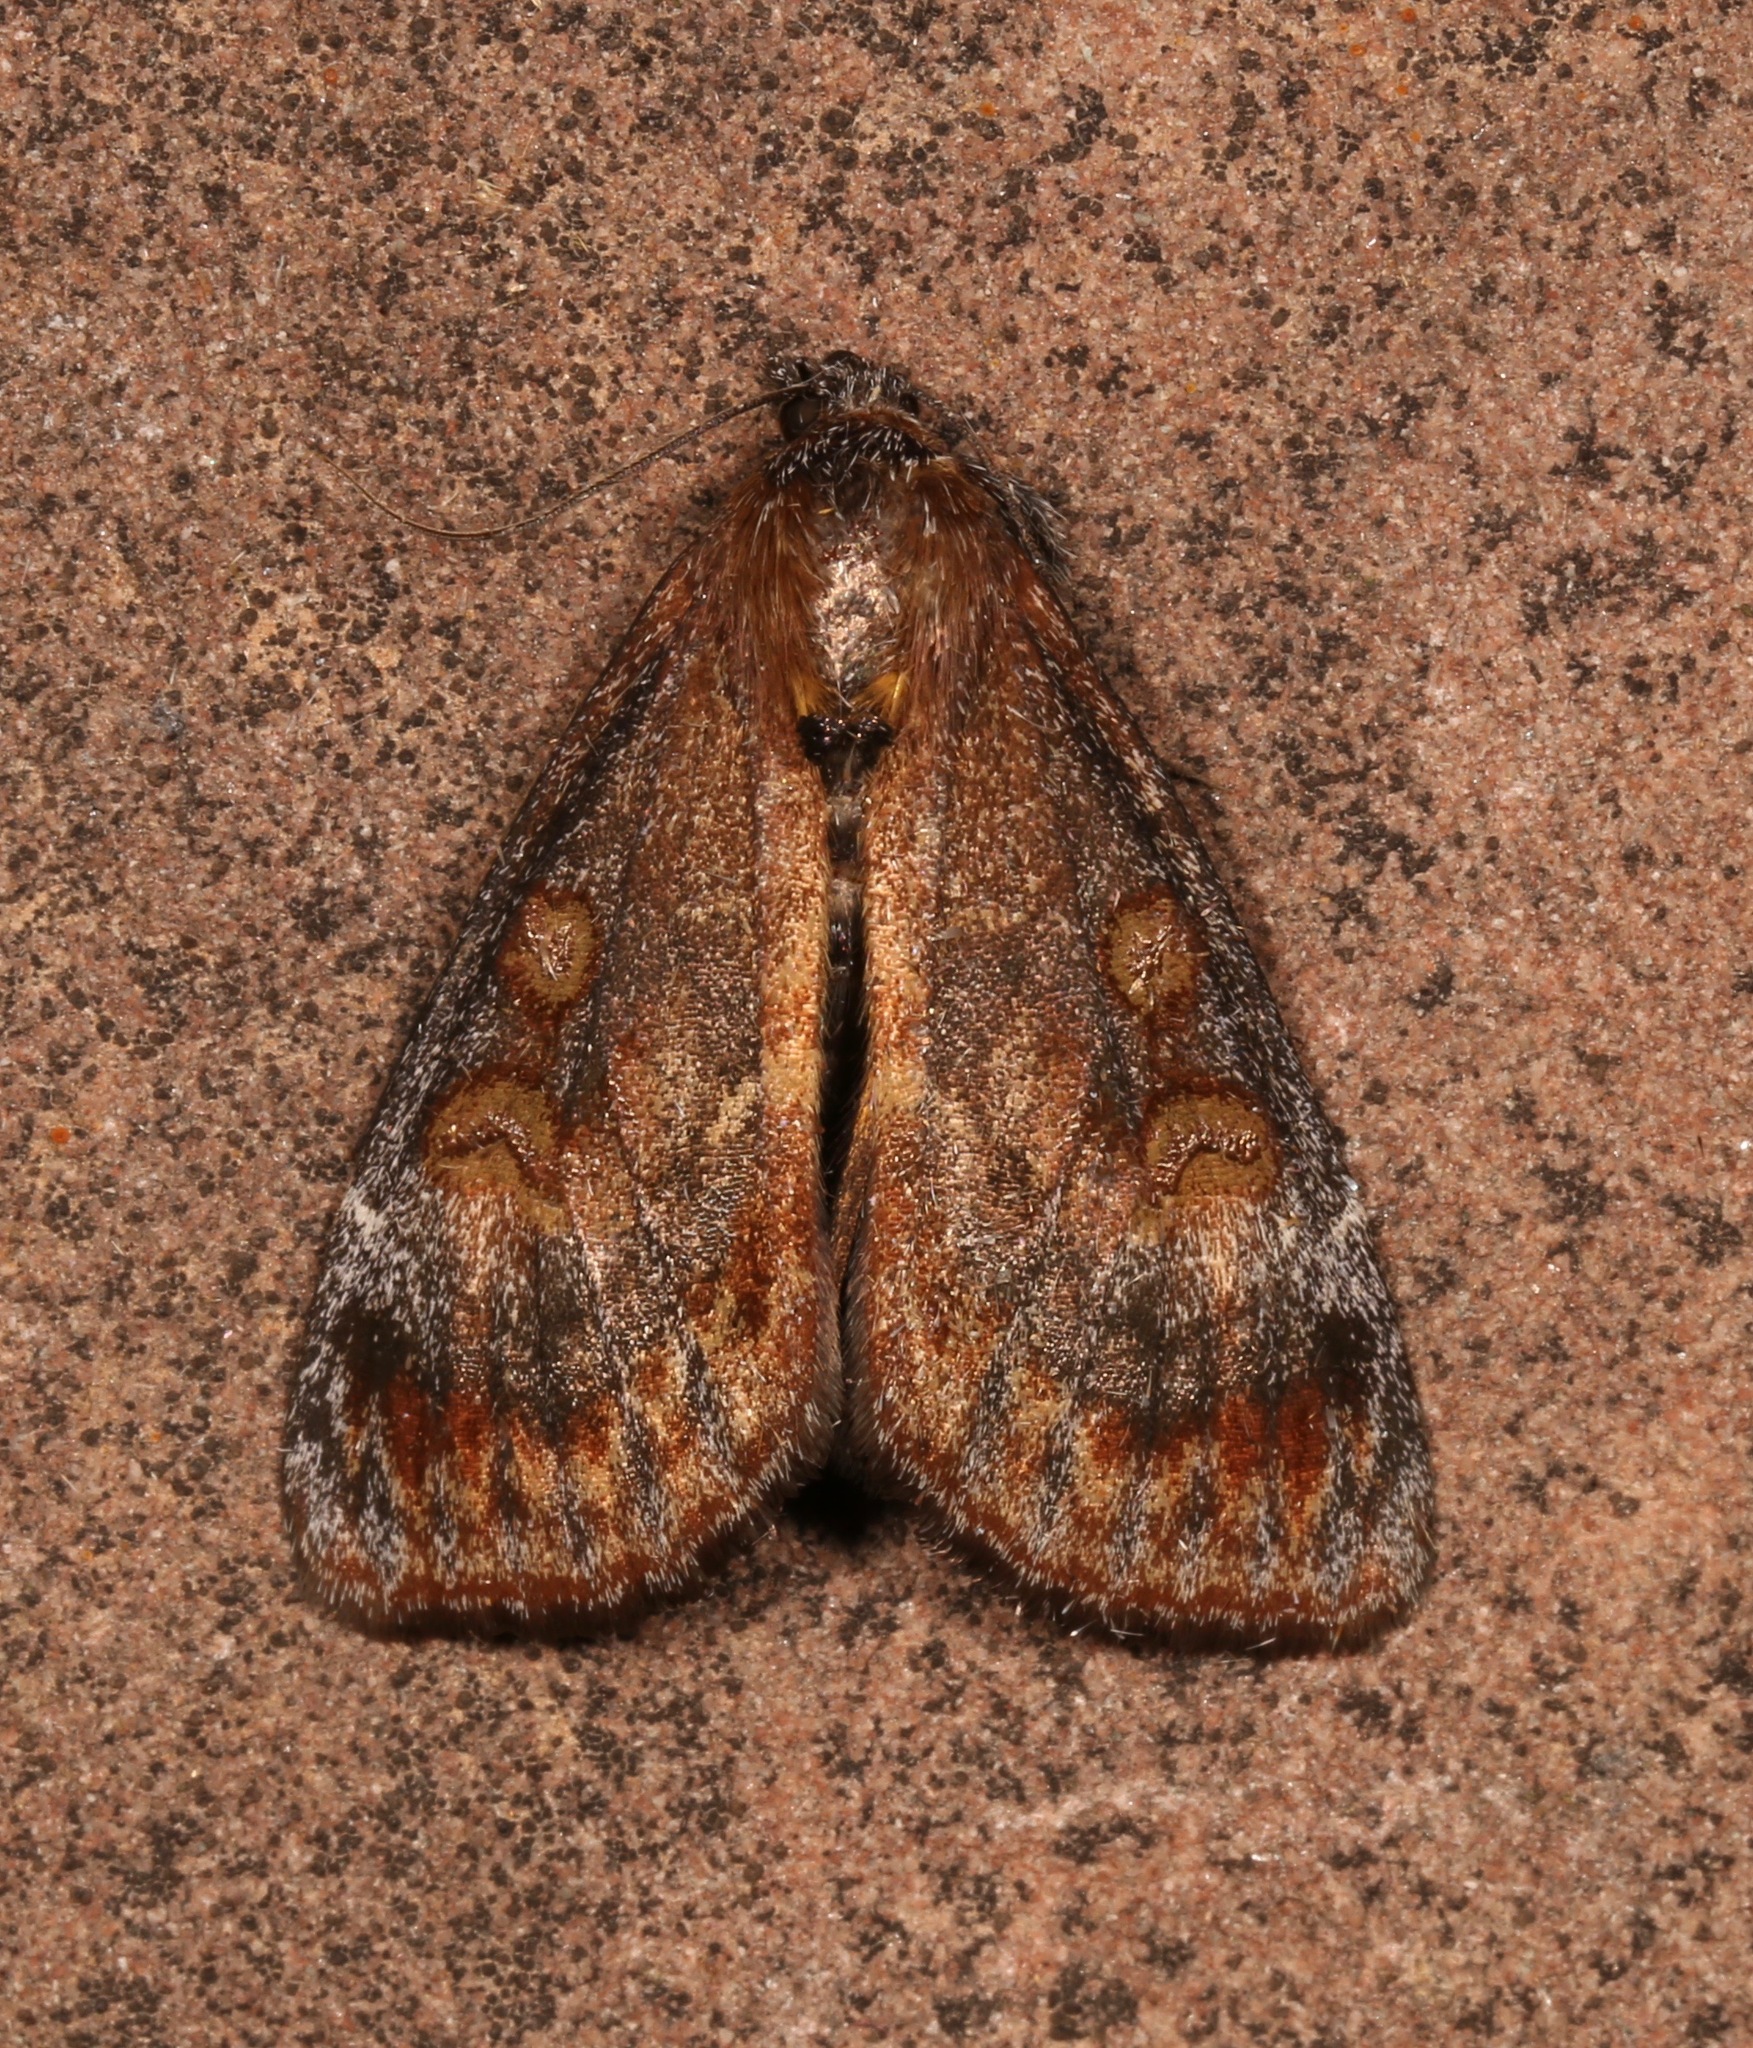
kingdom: Animalia
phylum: Arthropoda
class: Insecta
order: Lepidoptera
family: Noctuidae
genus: Gerra
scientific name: Gerra sevorsa
